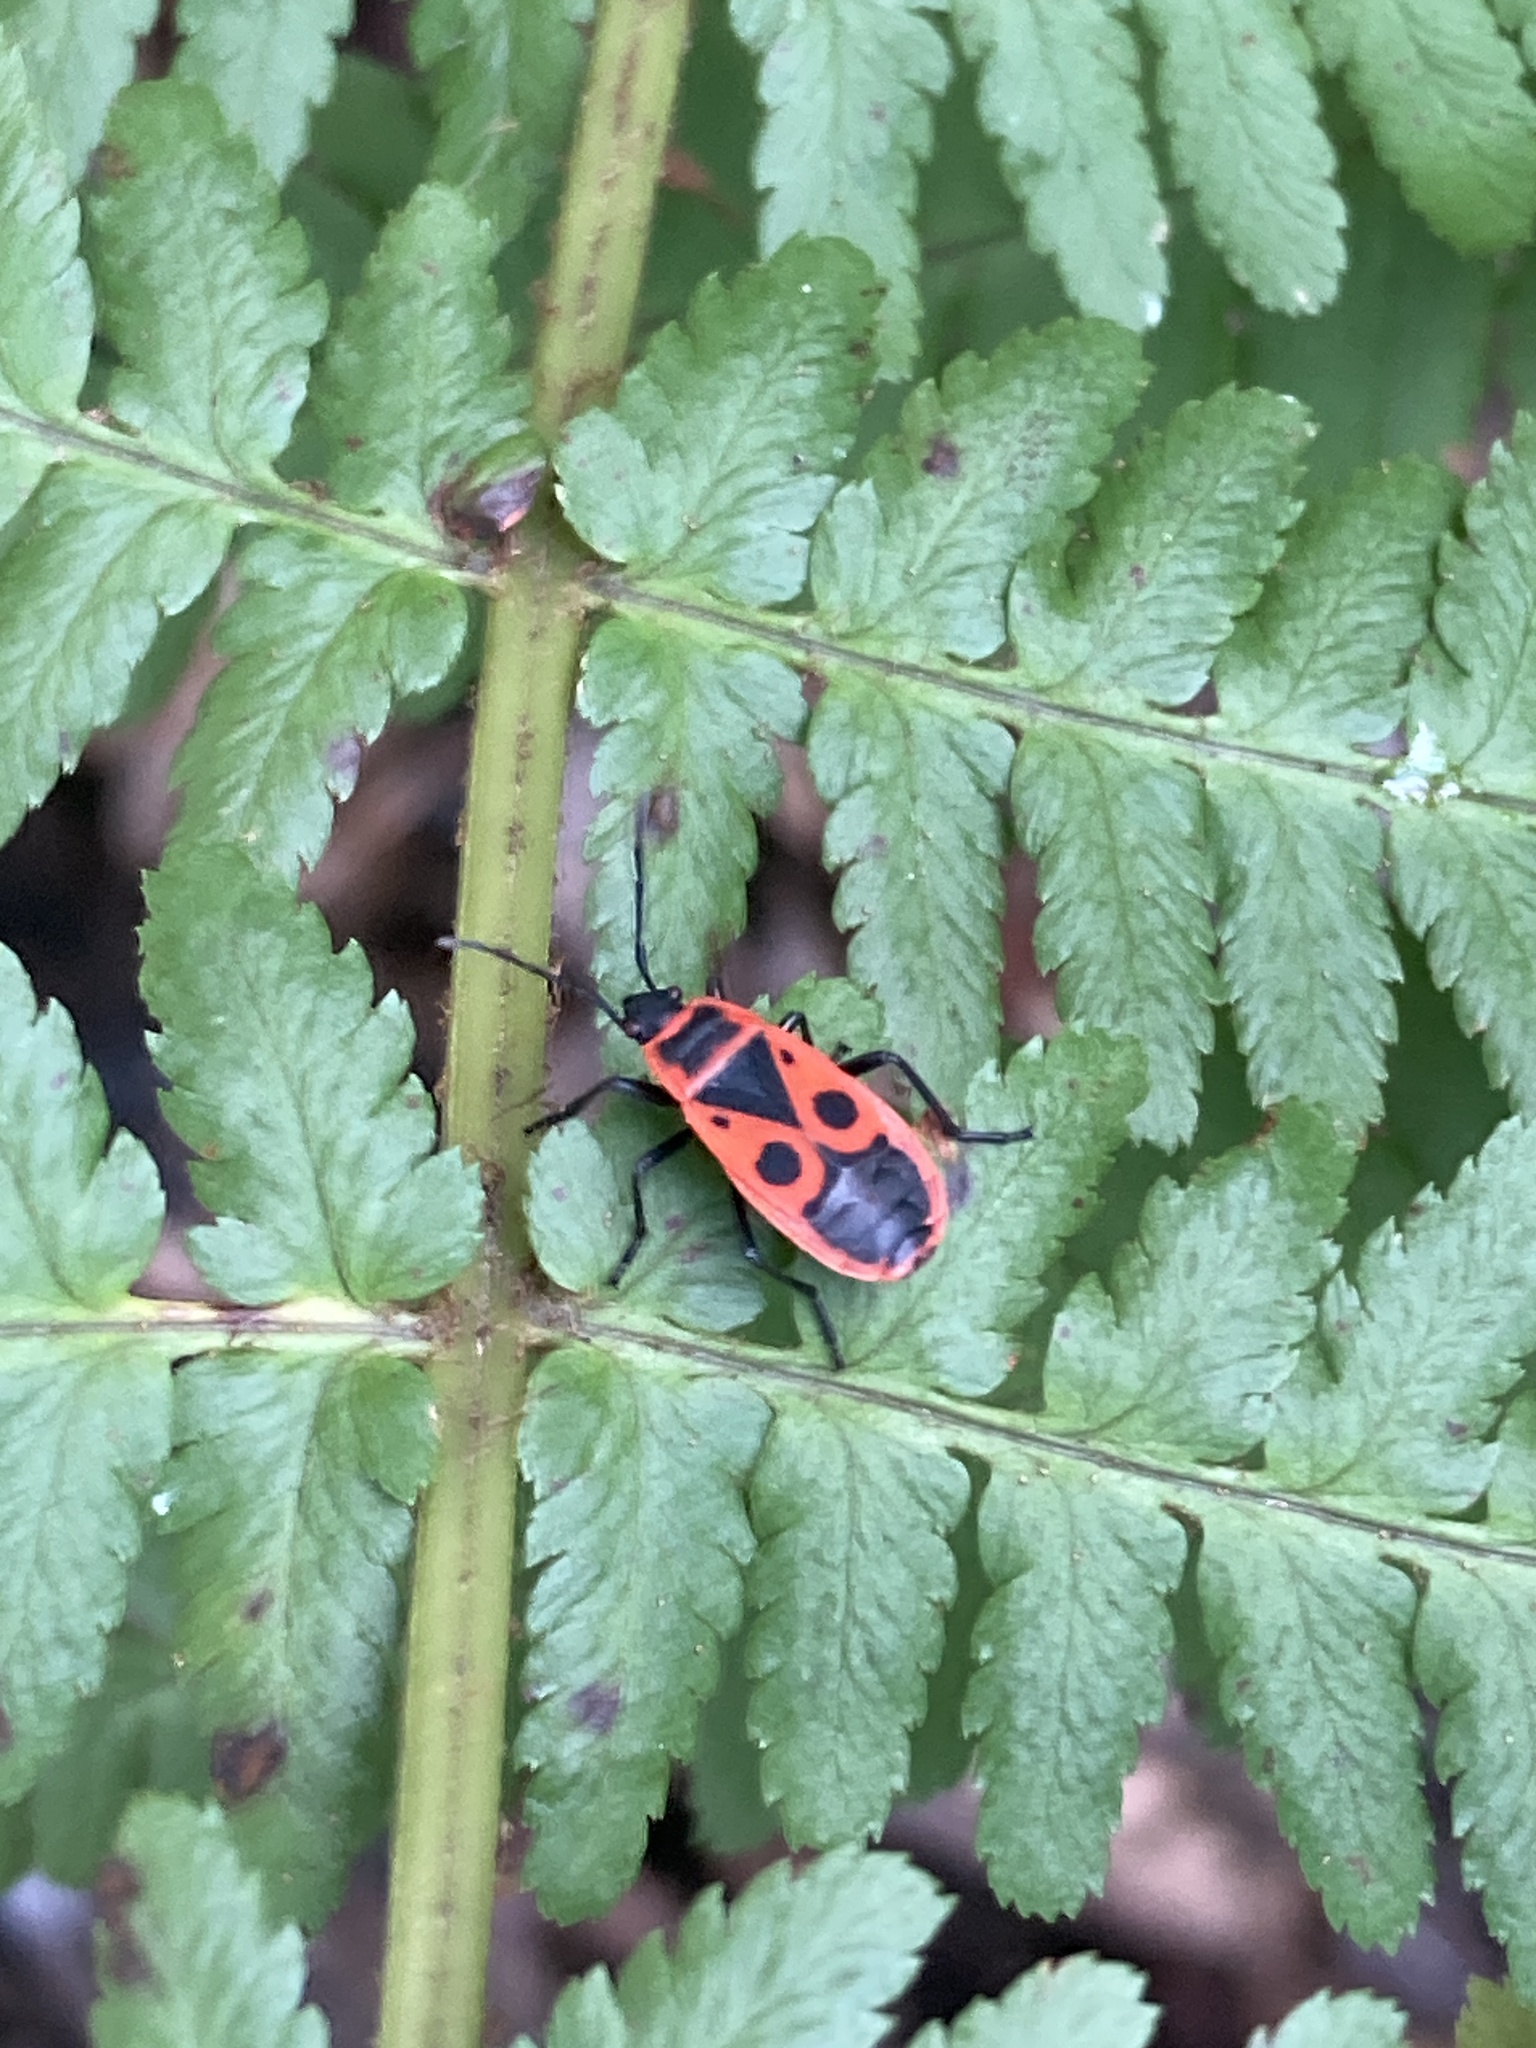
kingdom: Animalia
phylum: Arthropoda
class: Insecta
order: Hemiptera
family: Pyrrhocoridae
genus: Pyrrhocoris
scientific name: Pyrrhocoris apterus
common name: Firebug
